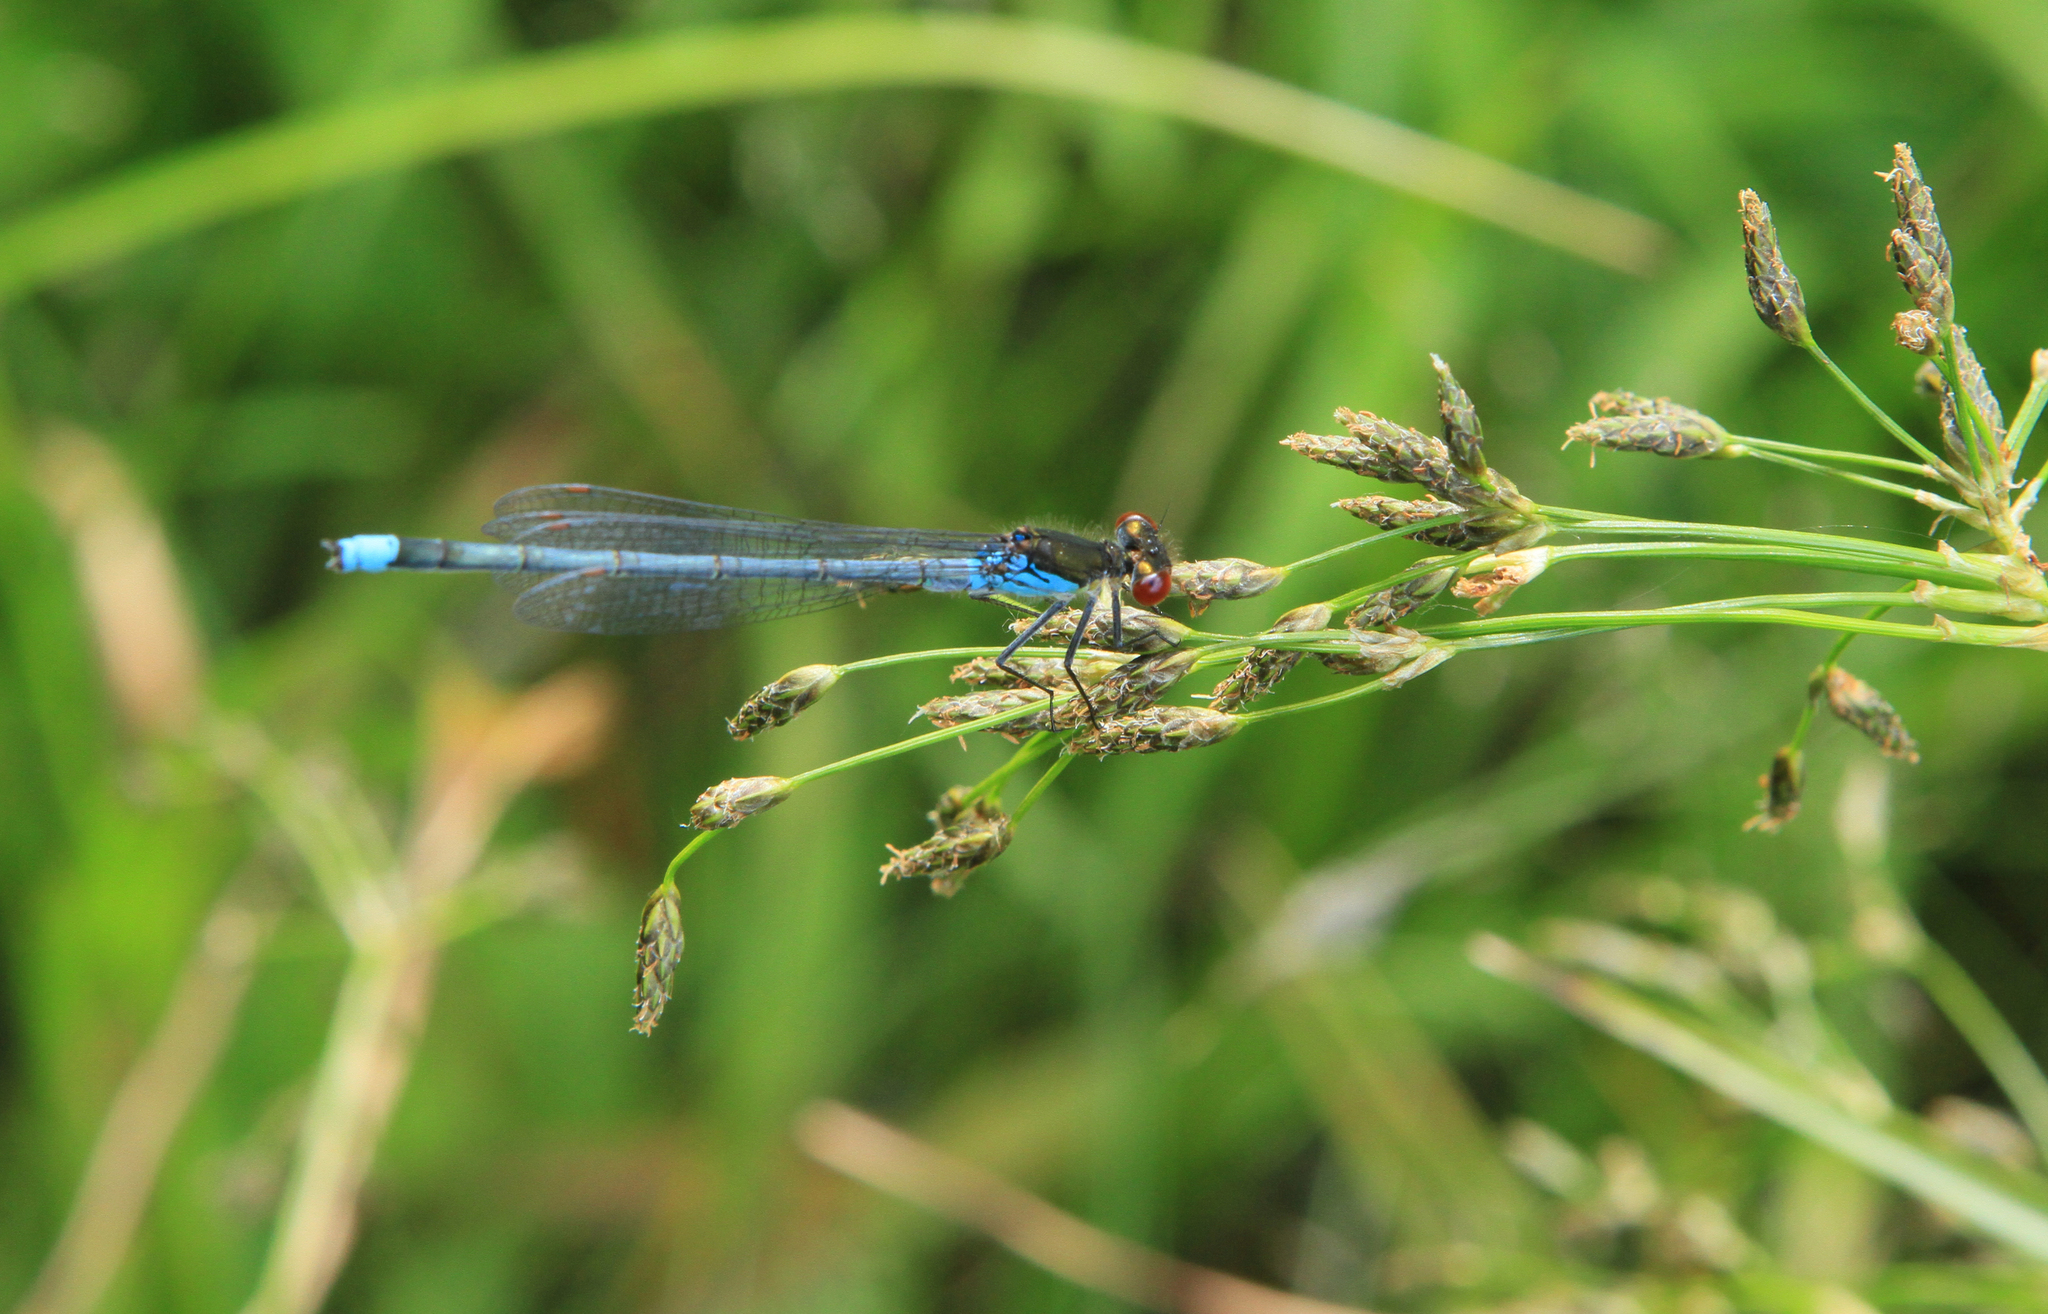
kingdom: Animalia
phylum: Arthropoda
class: Insecta
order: Odonata
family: Coenagrionidae
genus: Erythromma
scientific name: Erythromma najas
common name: Red-eyed damselfly
